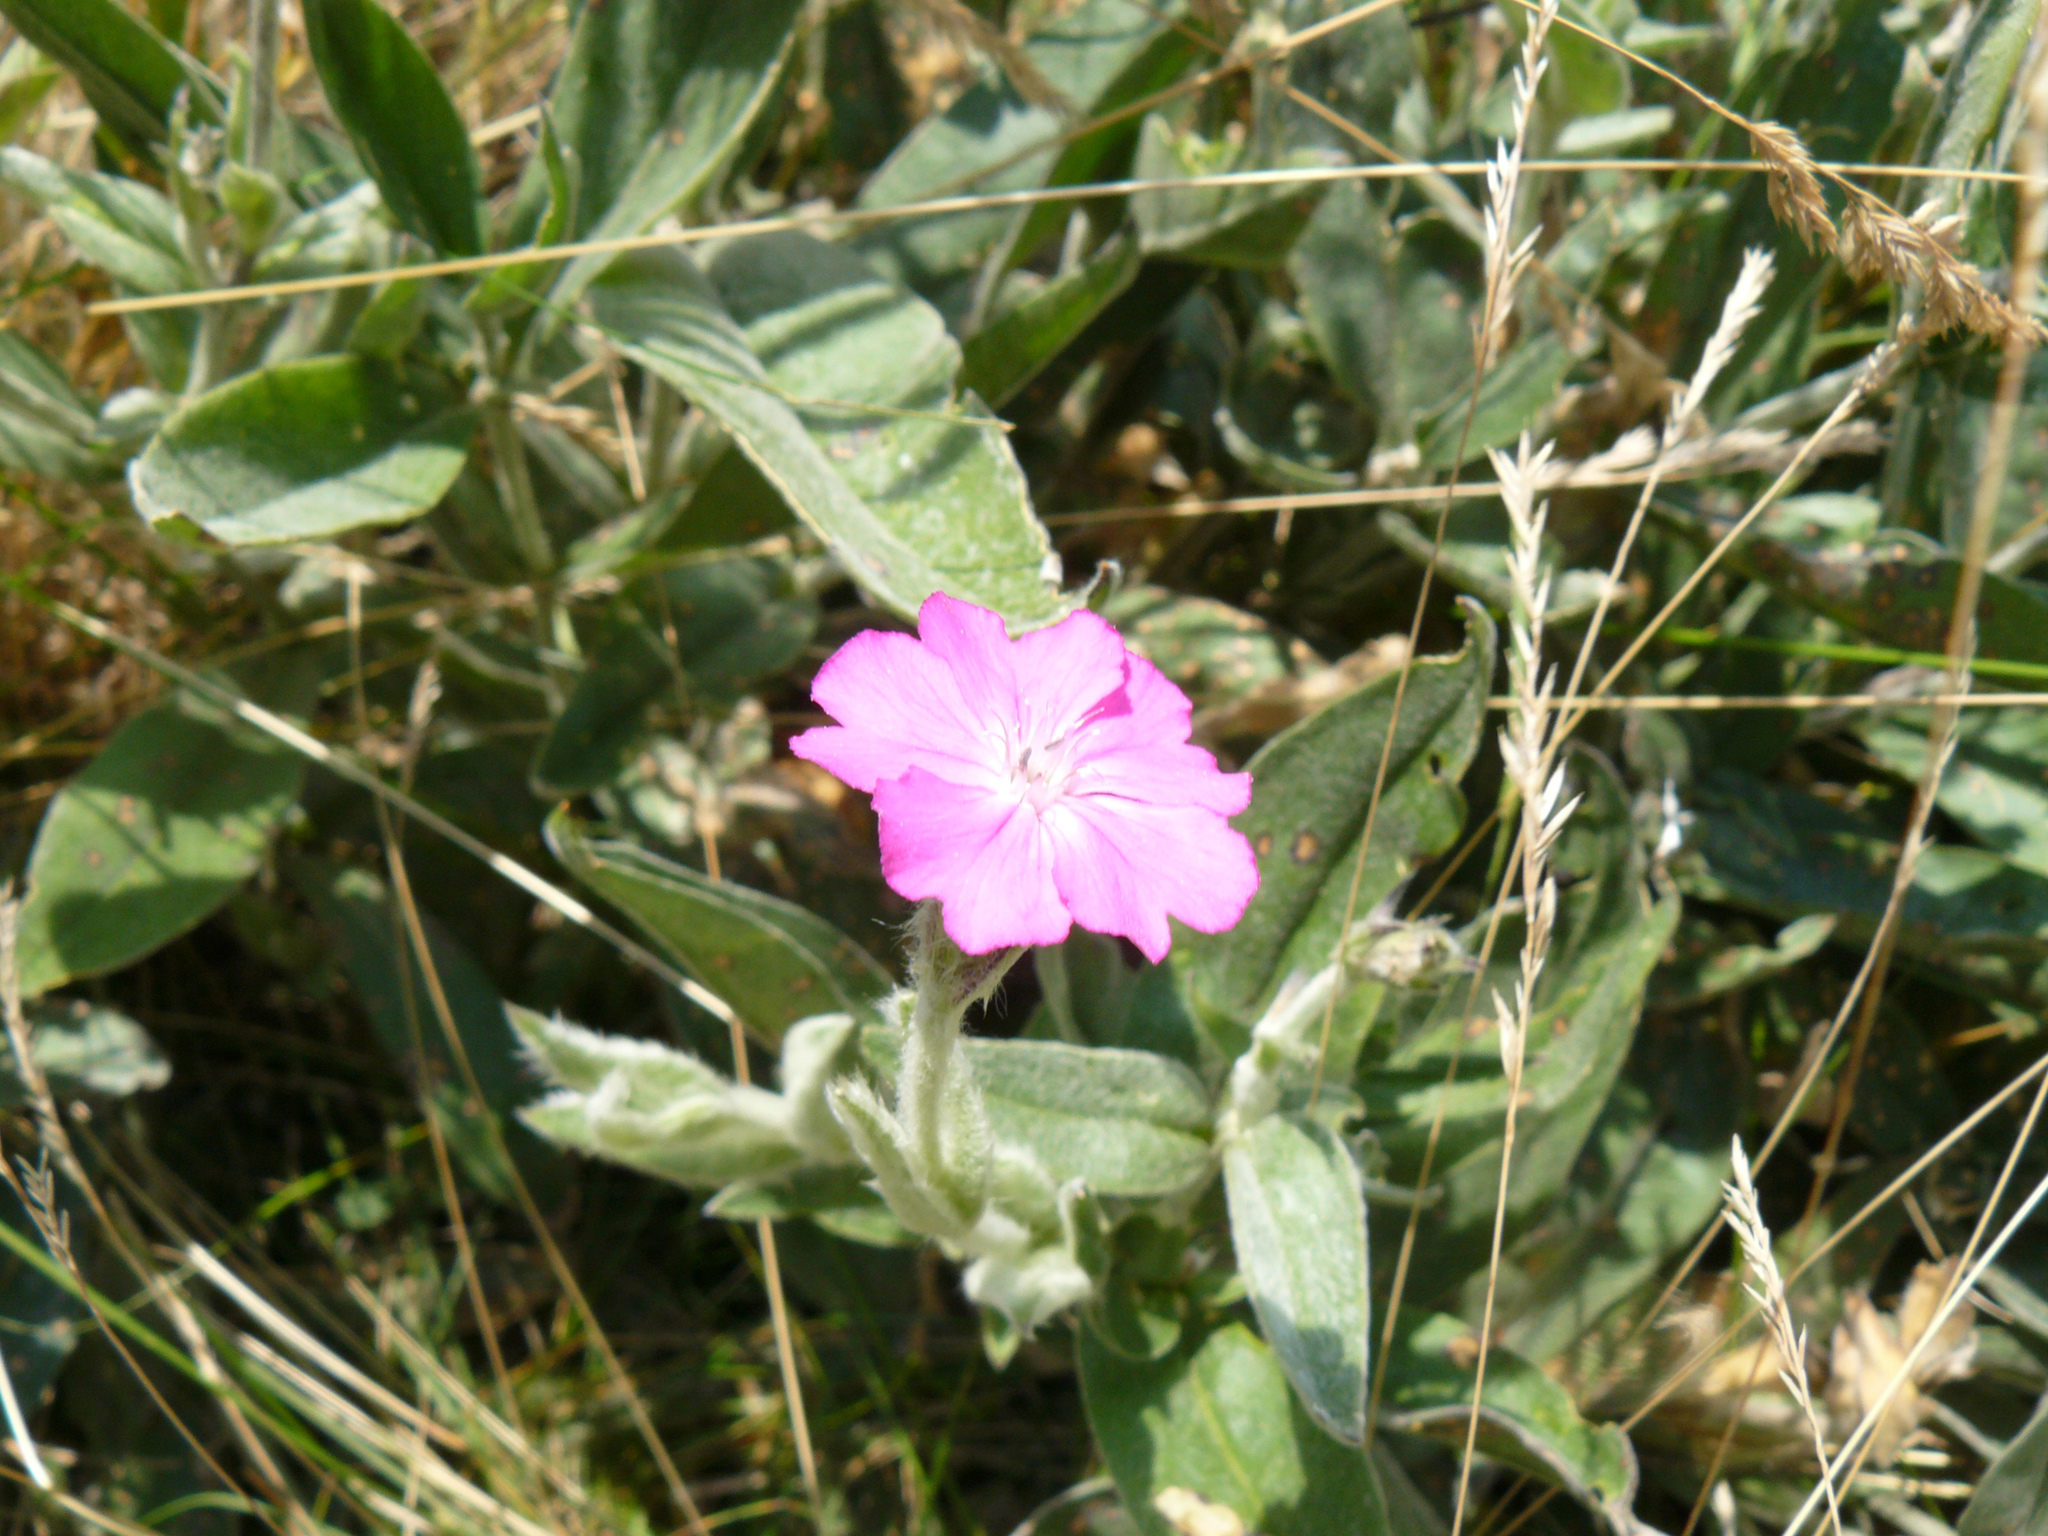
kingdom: Plantae
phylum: Tracheophyta
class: Magnoliopsida
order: Caryophyllales
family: Caryophyllaceae
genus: Silene
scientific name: Silene flos-jovis
